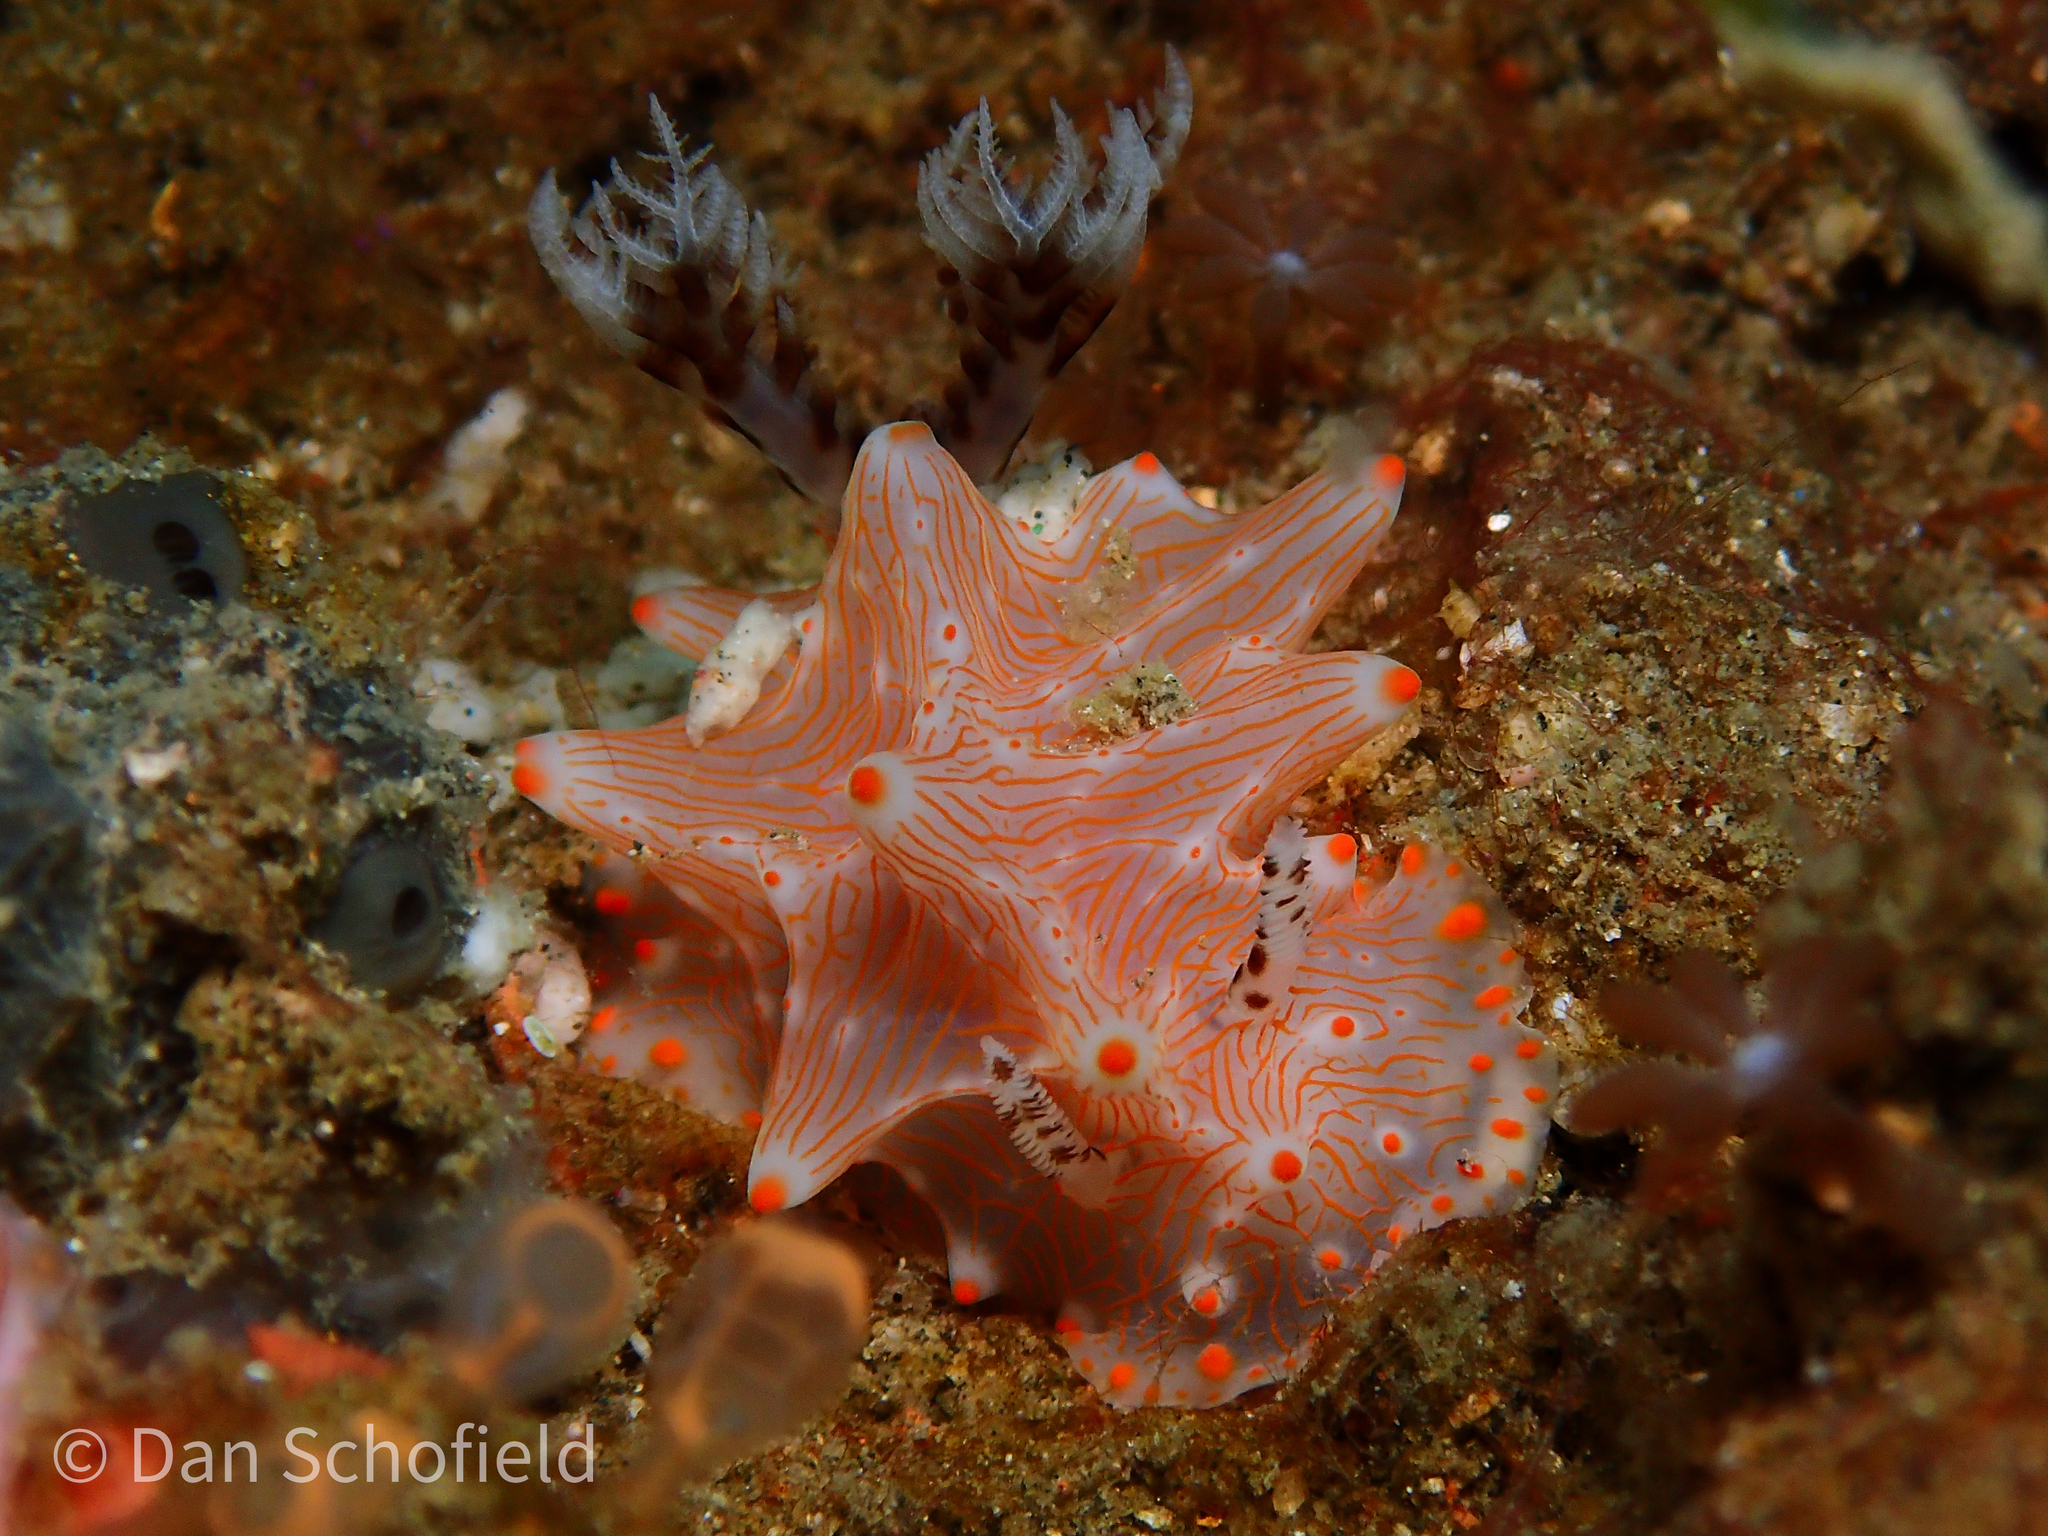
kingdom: Animalia
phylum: Mollusca
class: Gastropoda
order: Nudibranchia
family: Discodorididae
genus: Halgerda
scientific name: Halgerda batangas
